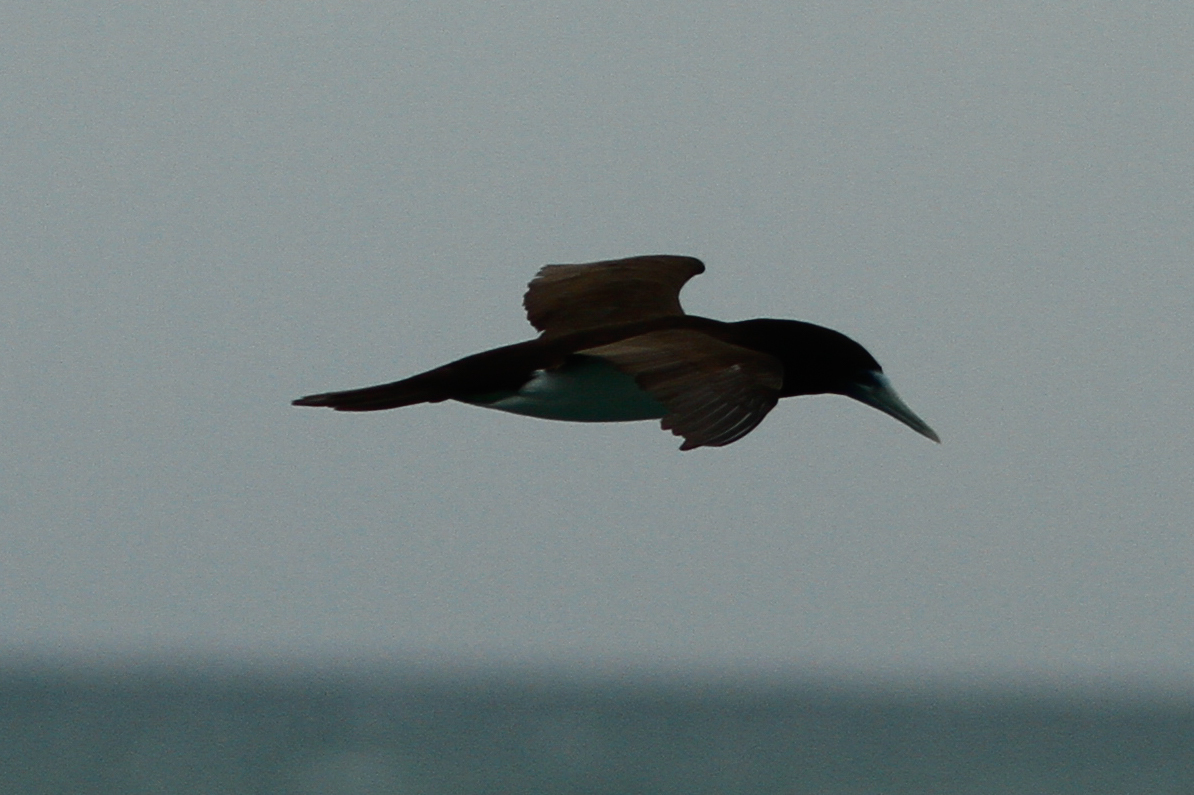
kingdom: Animalia
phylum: Chordata
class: Aves
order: Suliformes
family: Sulidae
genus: Sula
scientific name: Sula leucogaster
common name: Brown booby
